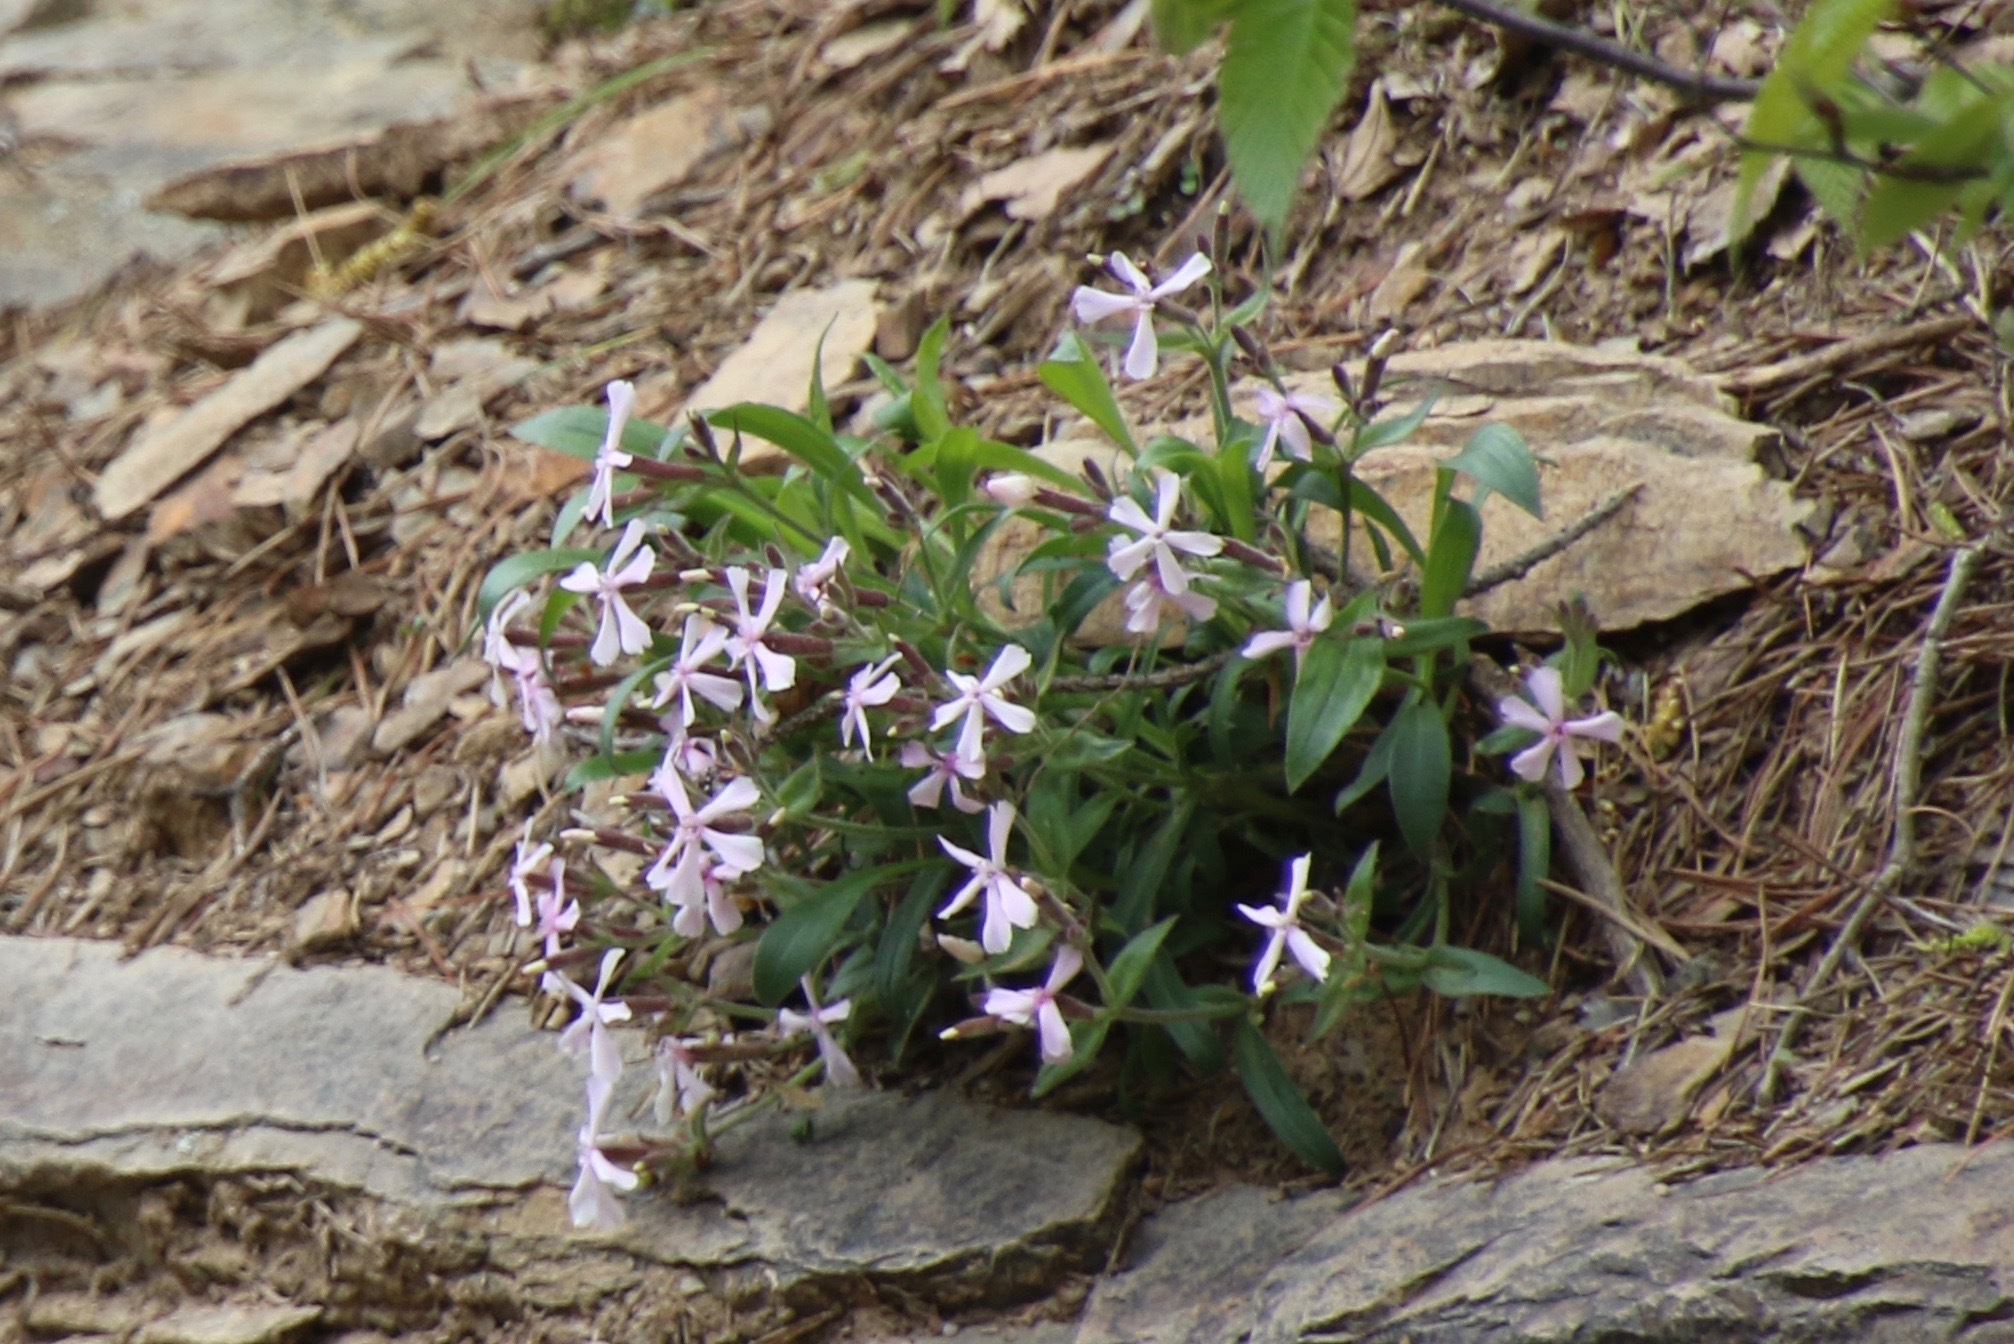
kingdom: Plantae
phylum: Tracheophyta
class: Magnoliopsida
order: Caryophyllales
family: Caryophyllaceae
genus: Silene
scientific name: Silene caroliniana
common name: Sticky catchfly
